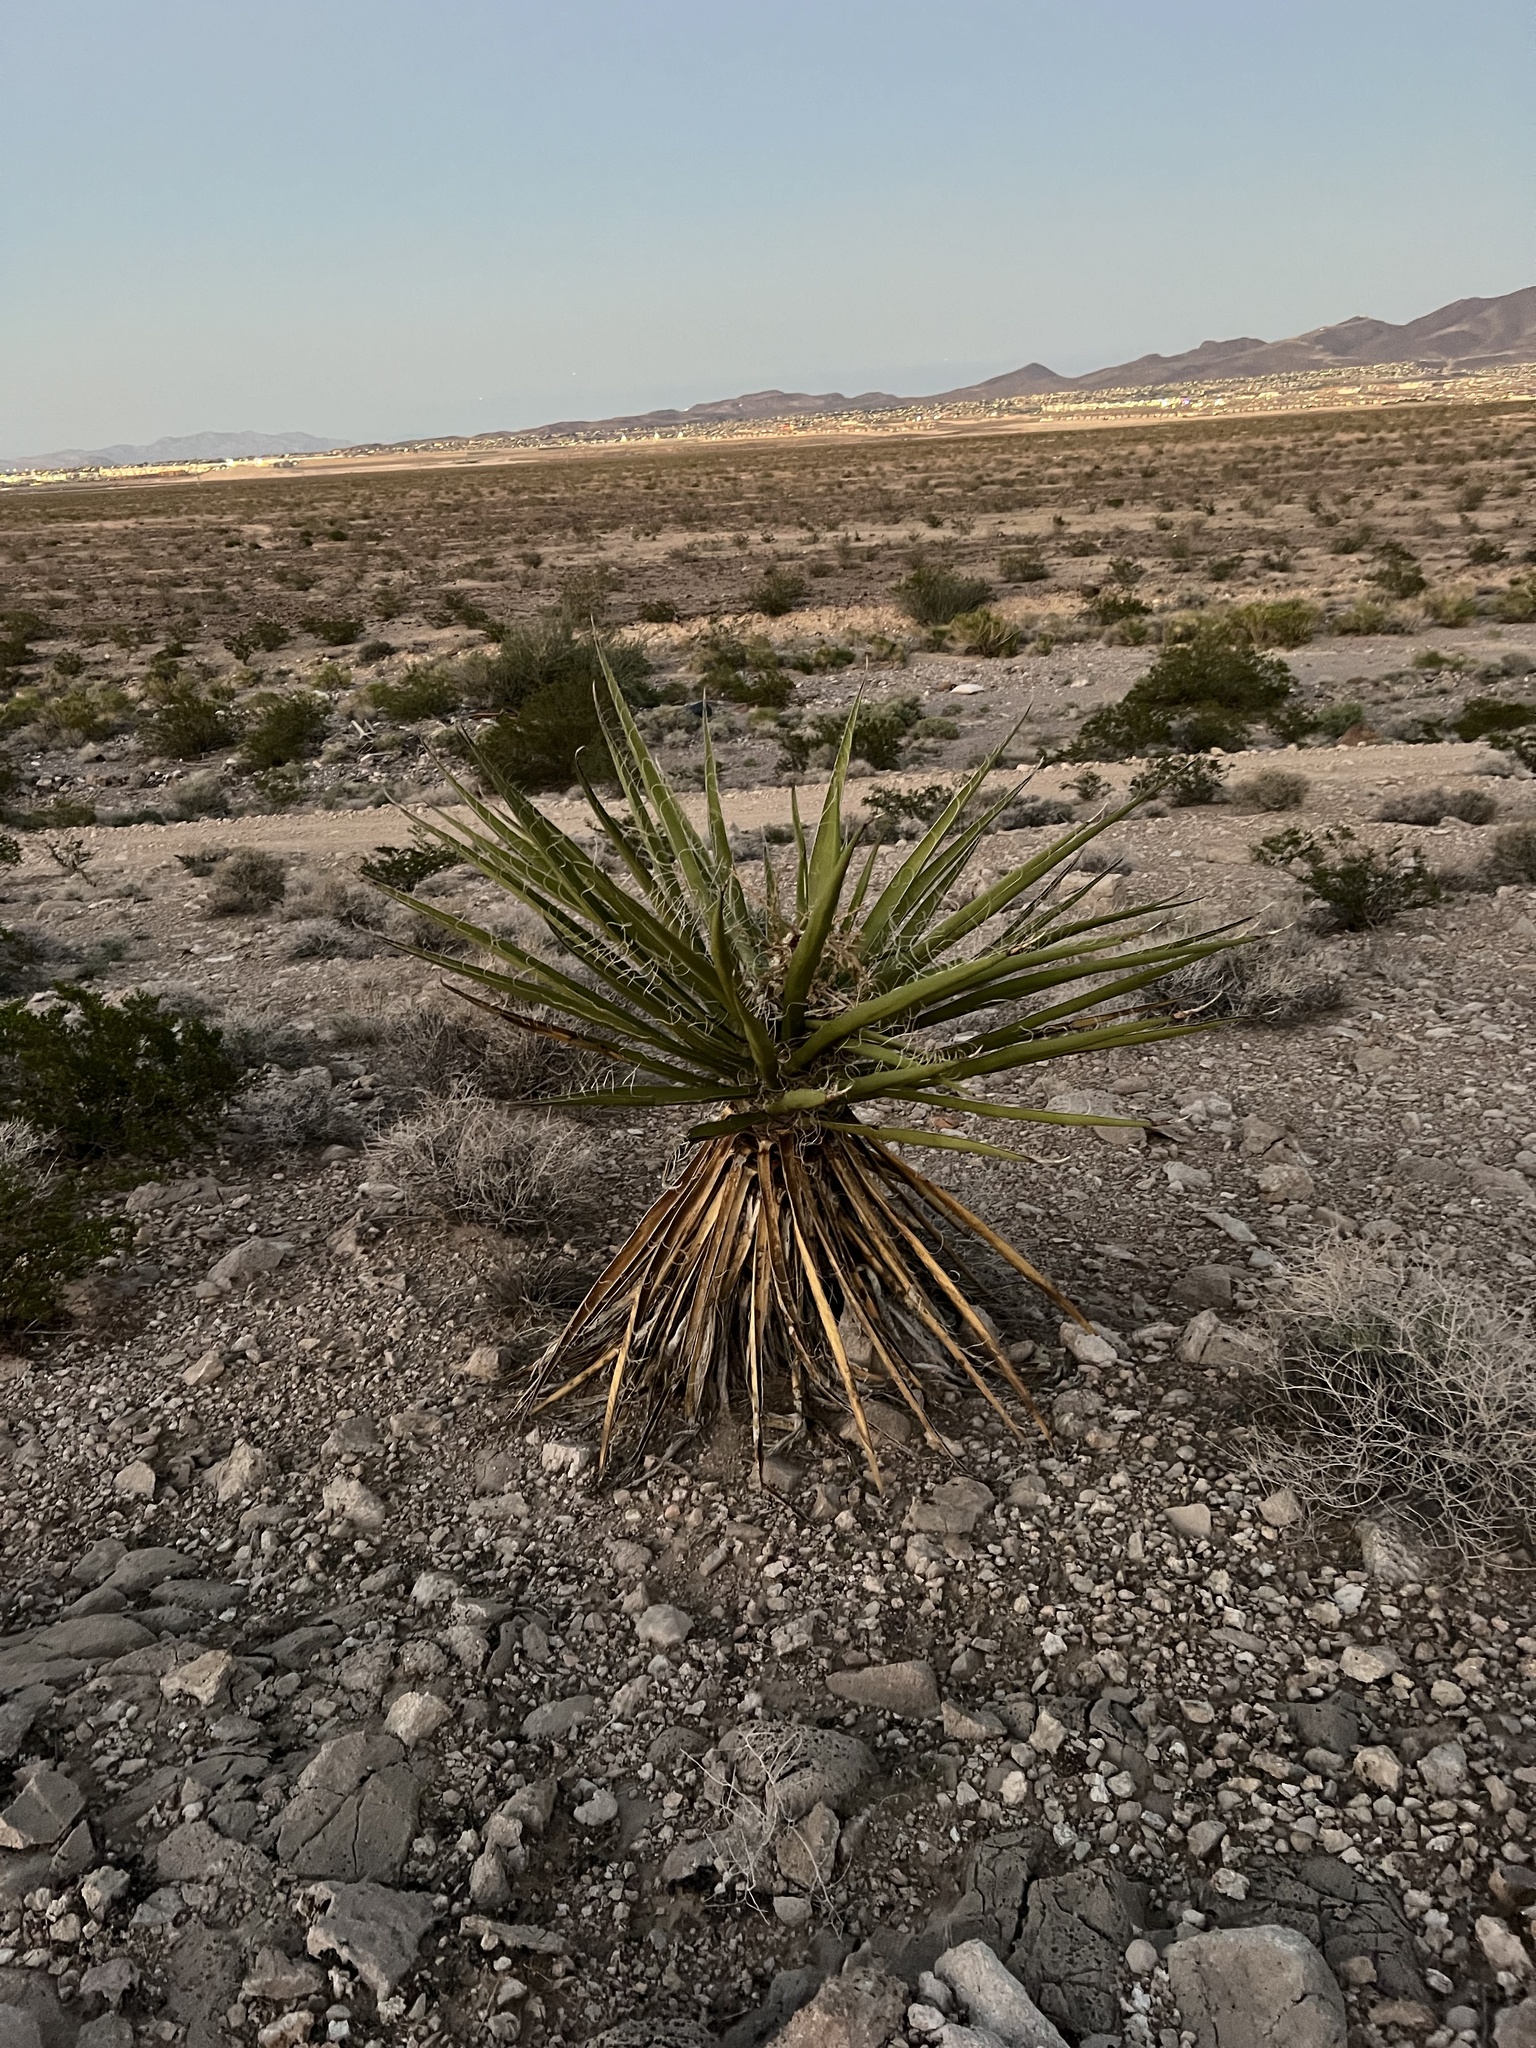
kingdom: Plantae
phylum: Tracheophyta
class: Liliopsida
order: Asparagales
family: Asparagaceae
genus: Yucca
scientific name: Yucca schidigera
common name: Mojave yucca
